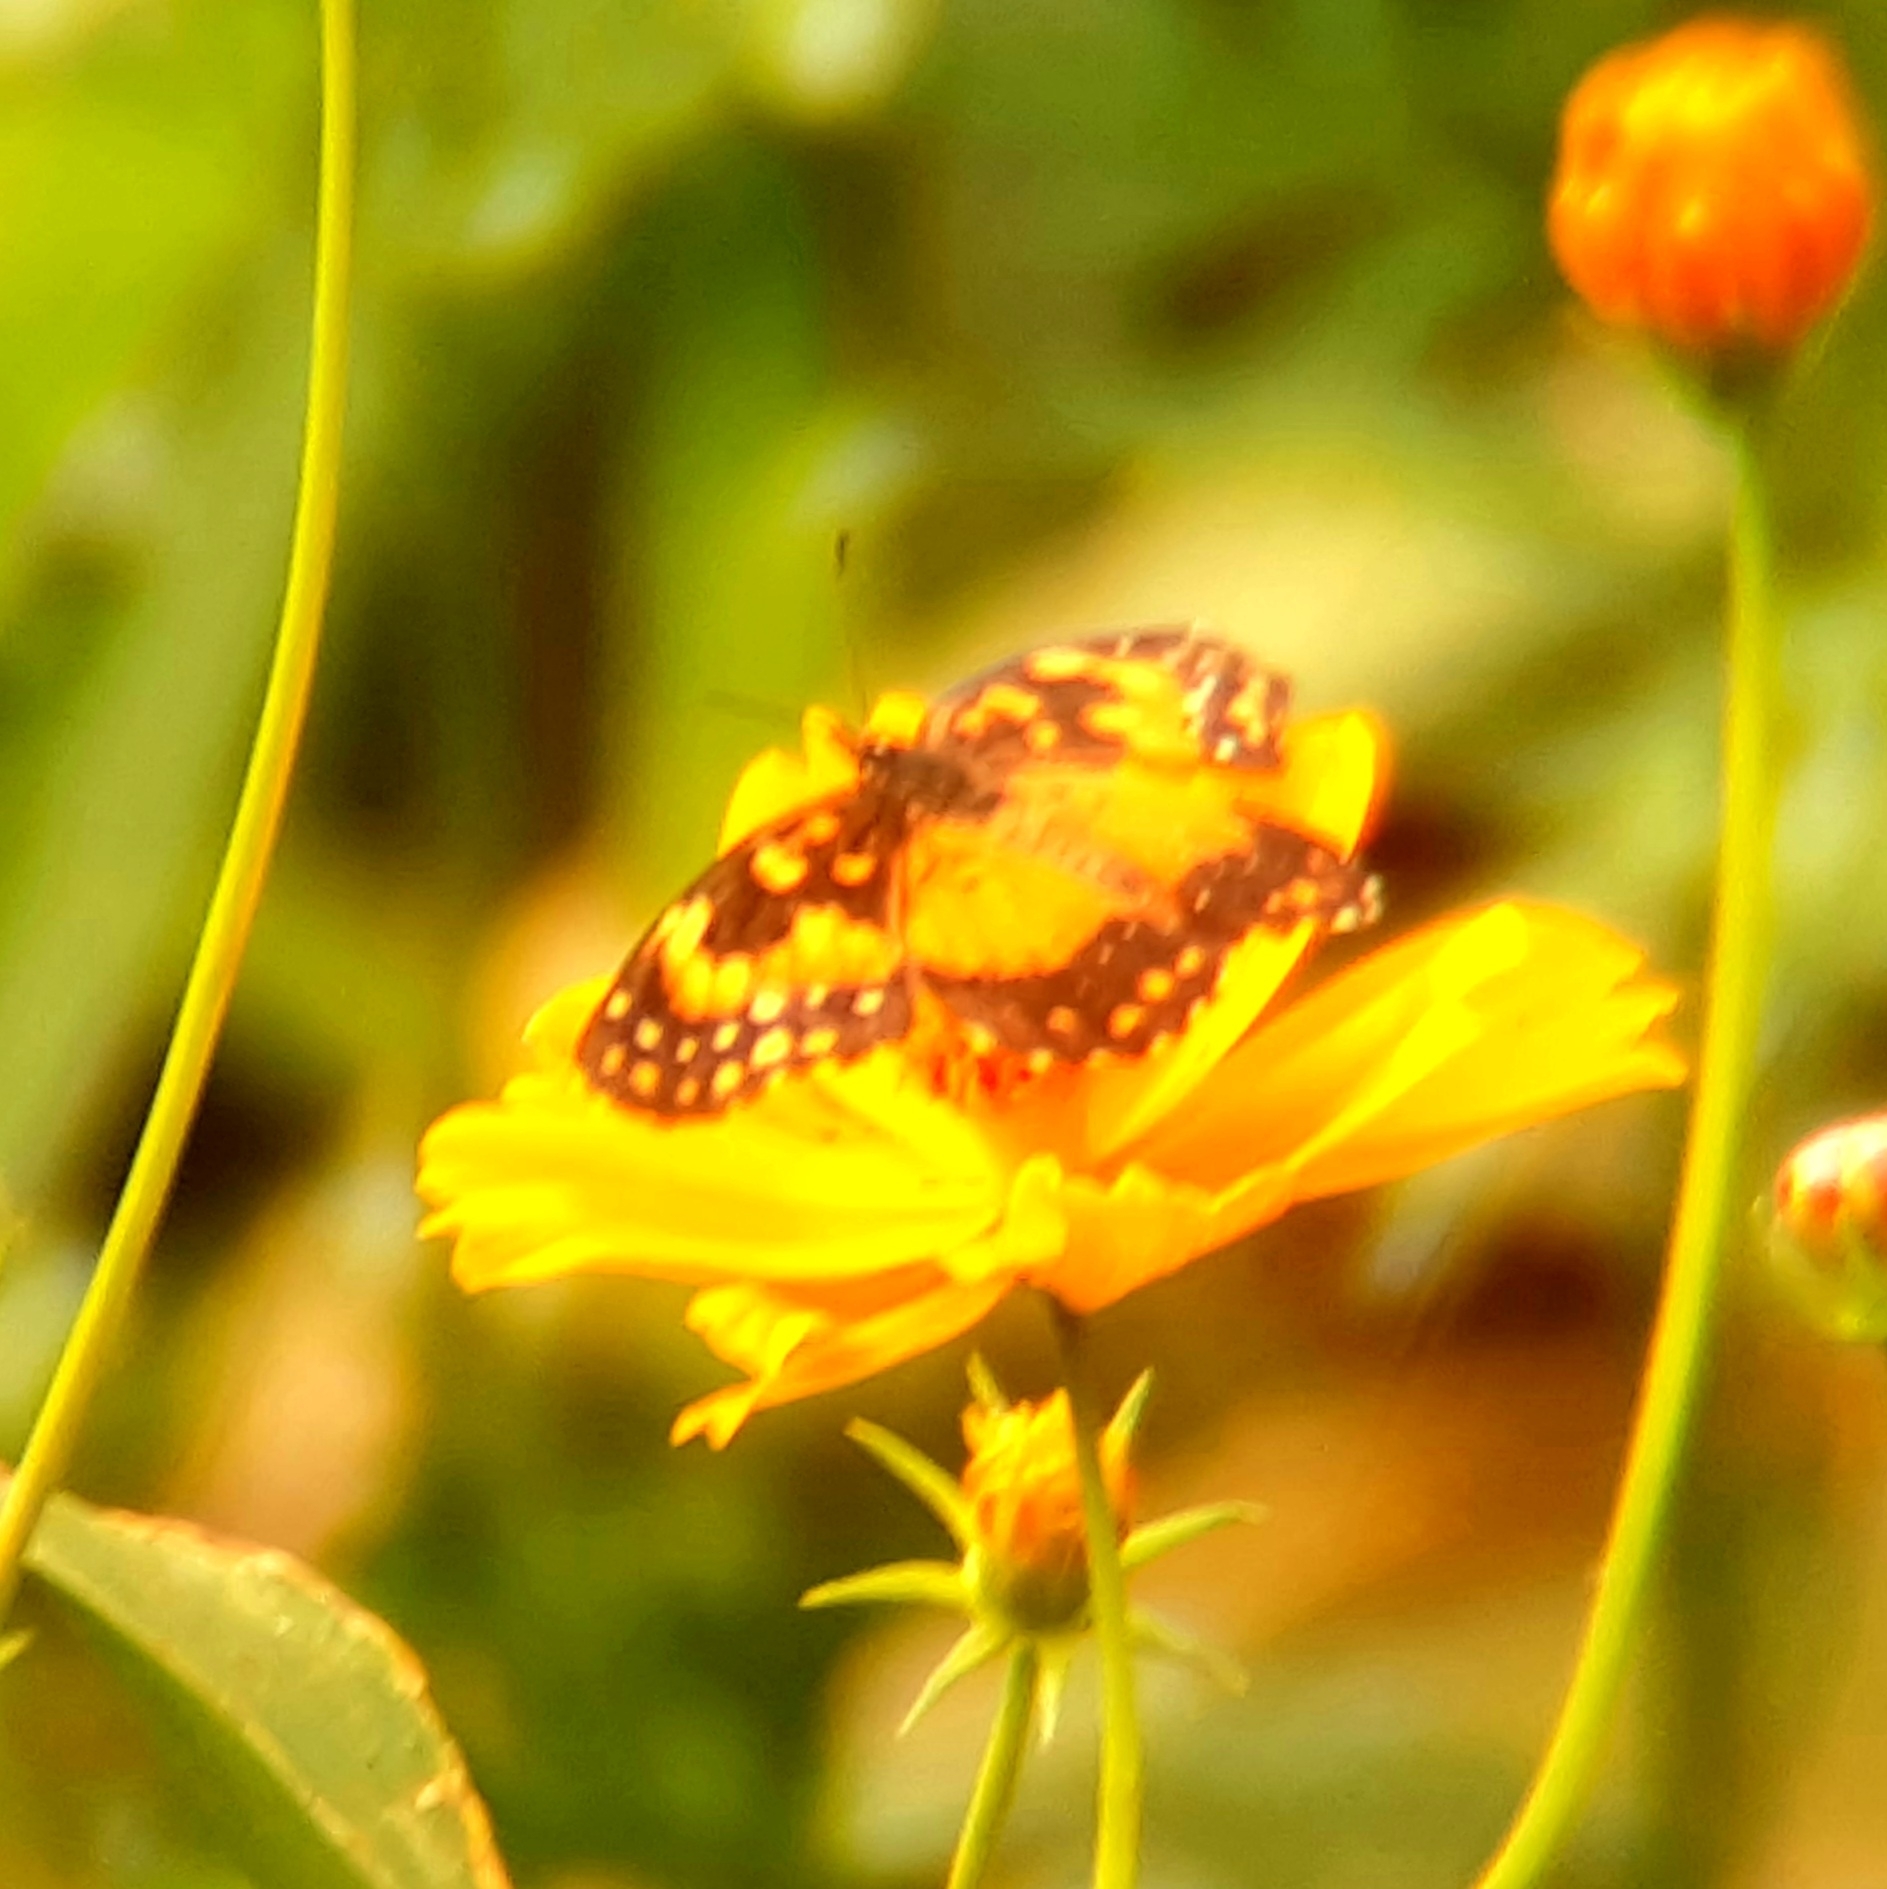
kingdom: Animalia
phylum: Arthropoda
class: Insecta
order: Lepidoptera
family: Nymphalidae
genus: Chlosyne
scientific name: Chlosyne lacinia
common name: Bordered patch
